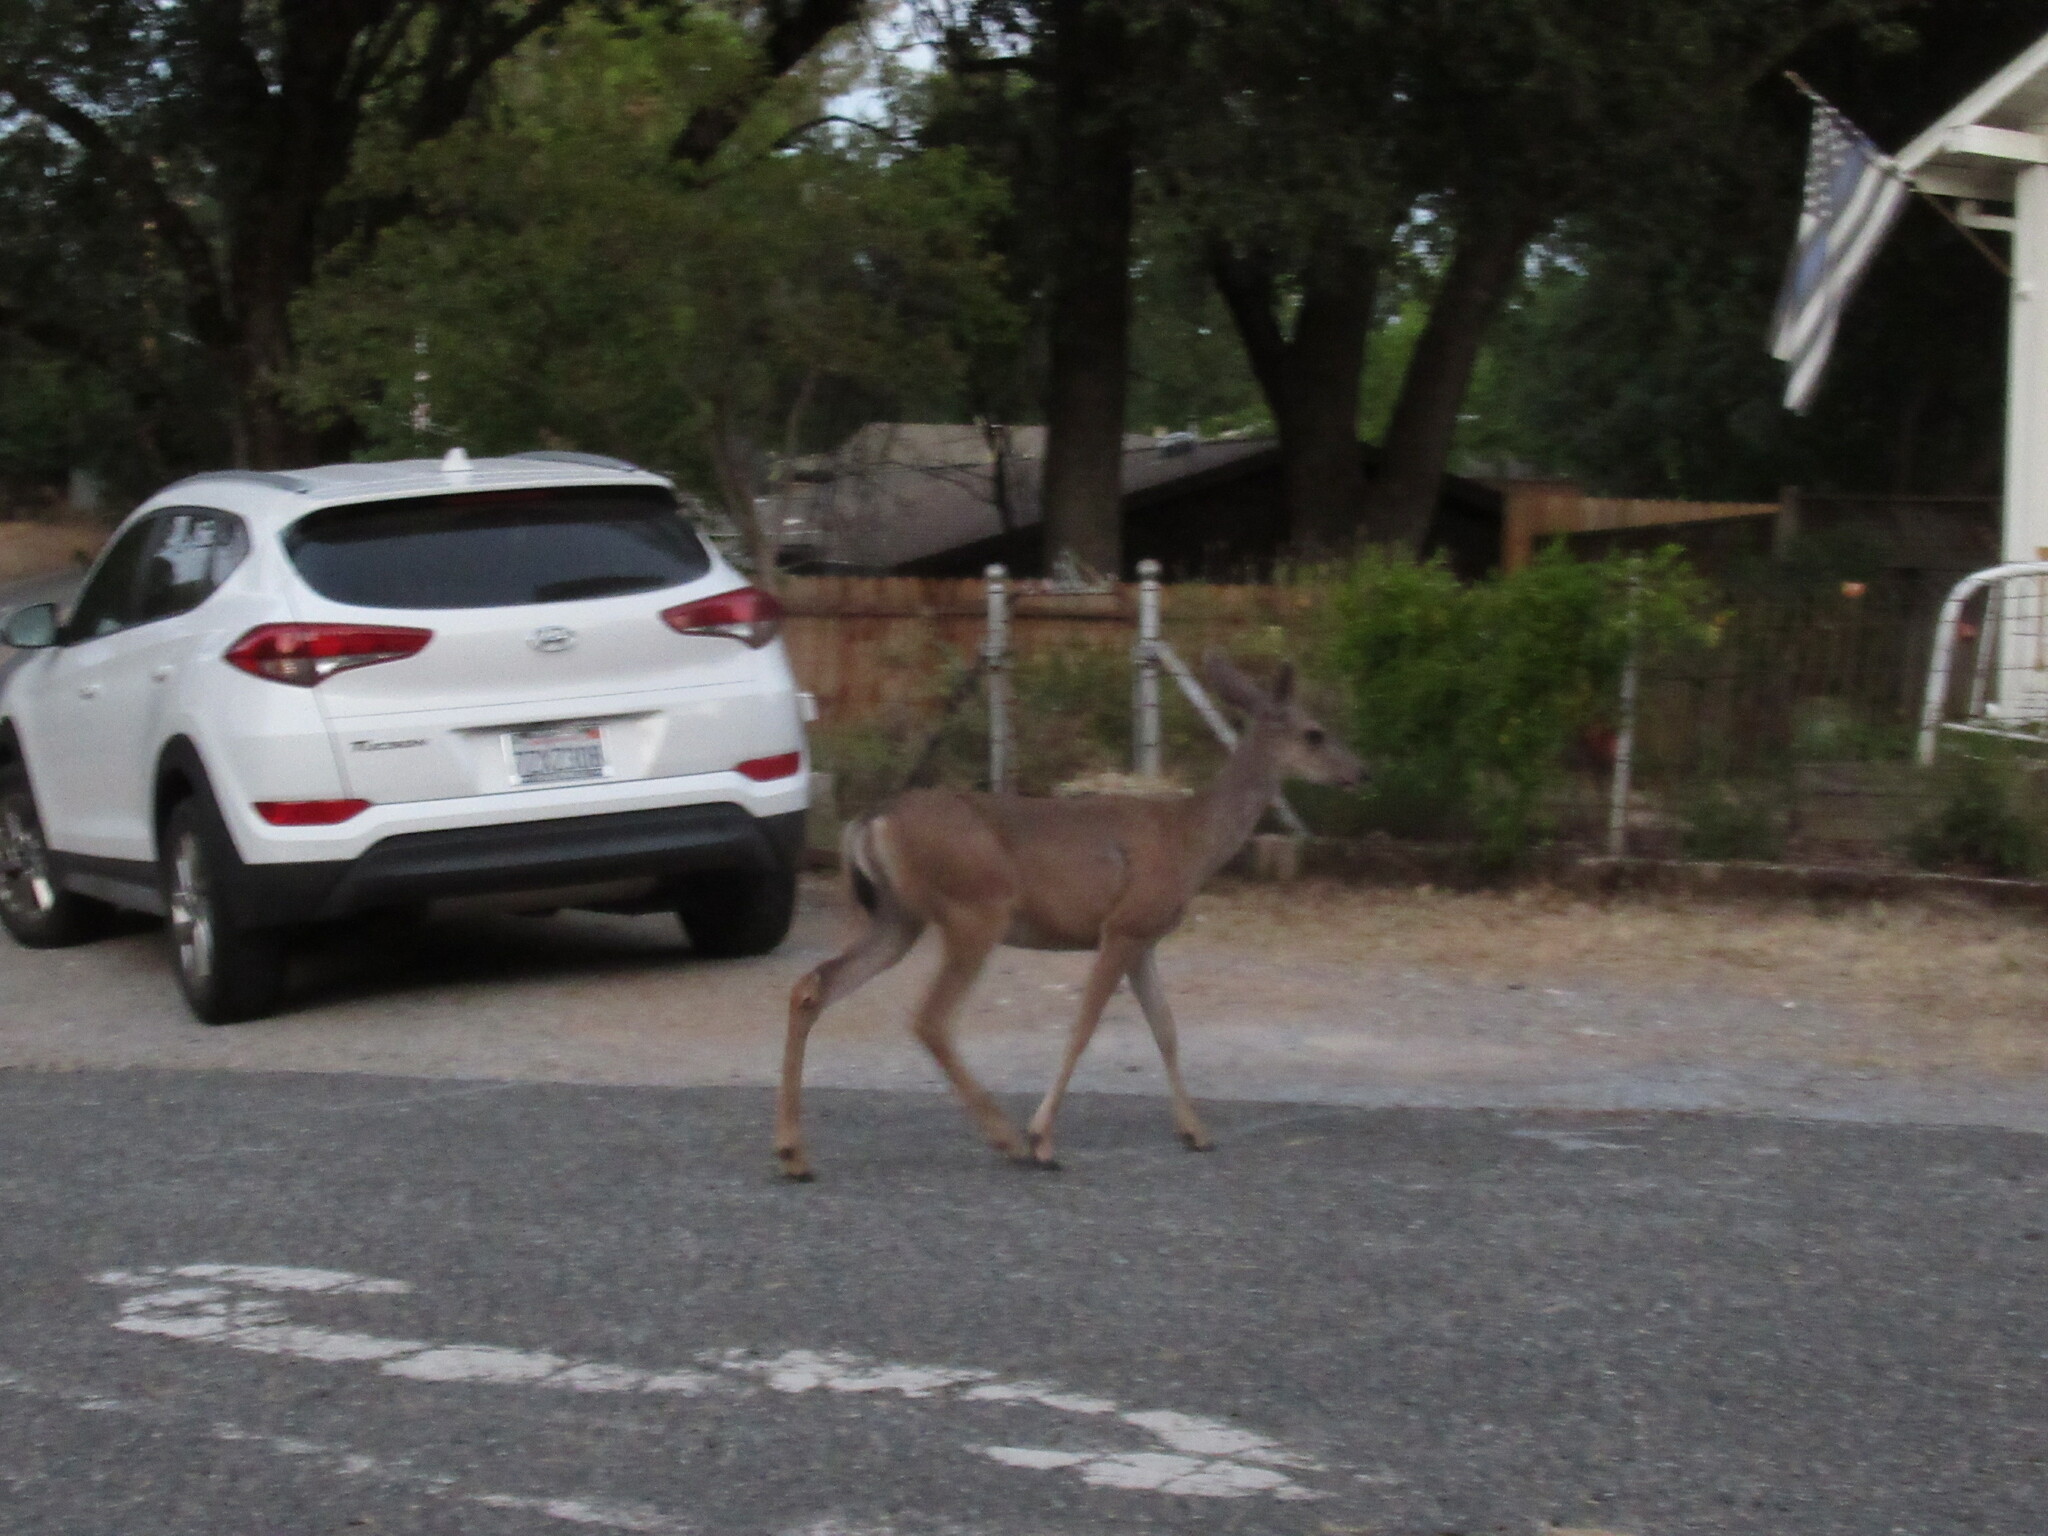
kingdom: Animalia
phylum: Chordata
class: Mammalia
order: Artiodactyla
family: Cervidae
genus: Odocoileus
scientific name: Odocoileus hemionus
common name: Mule deer
